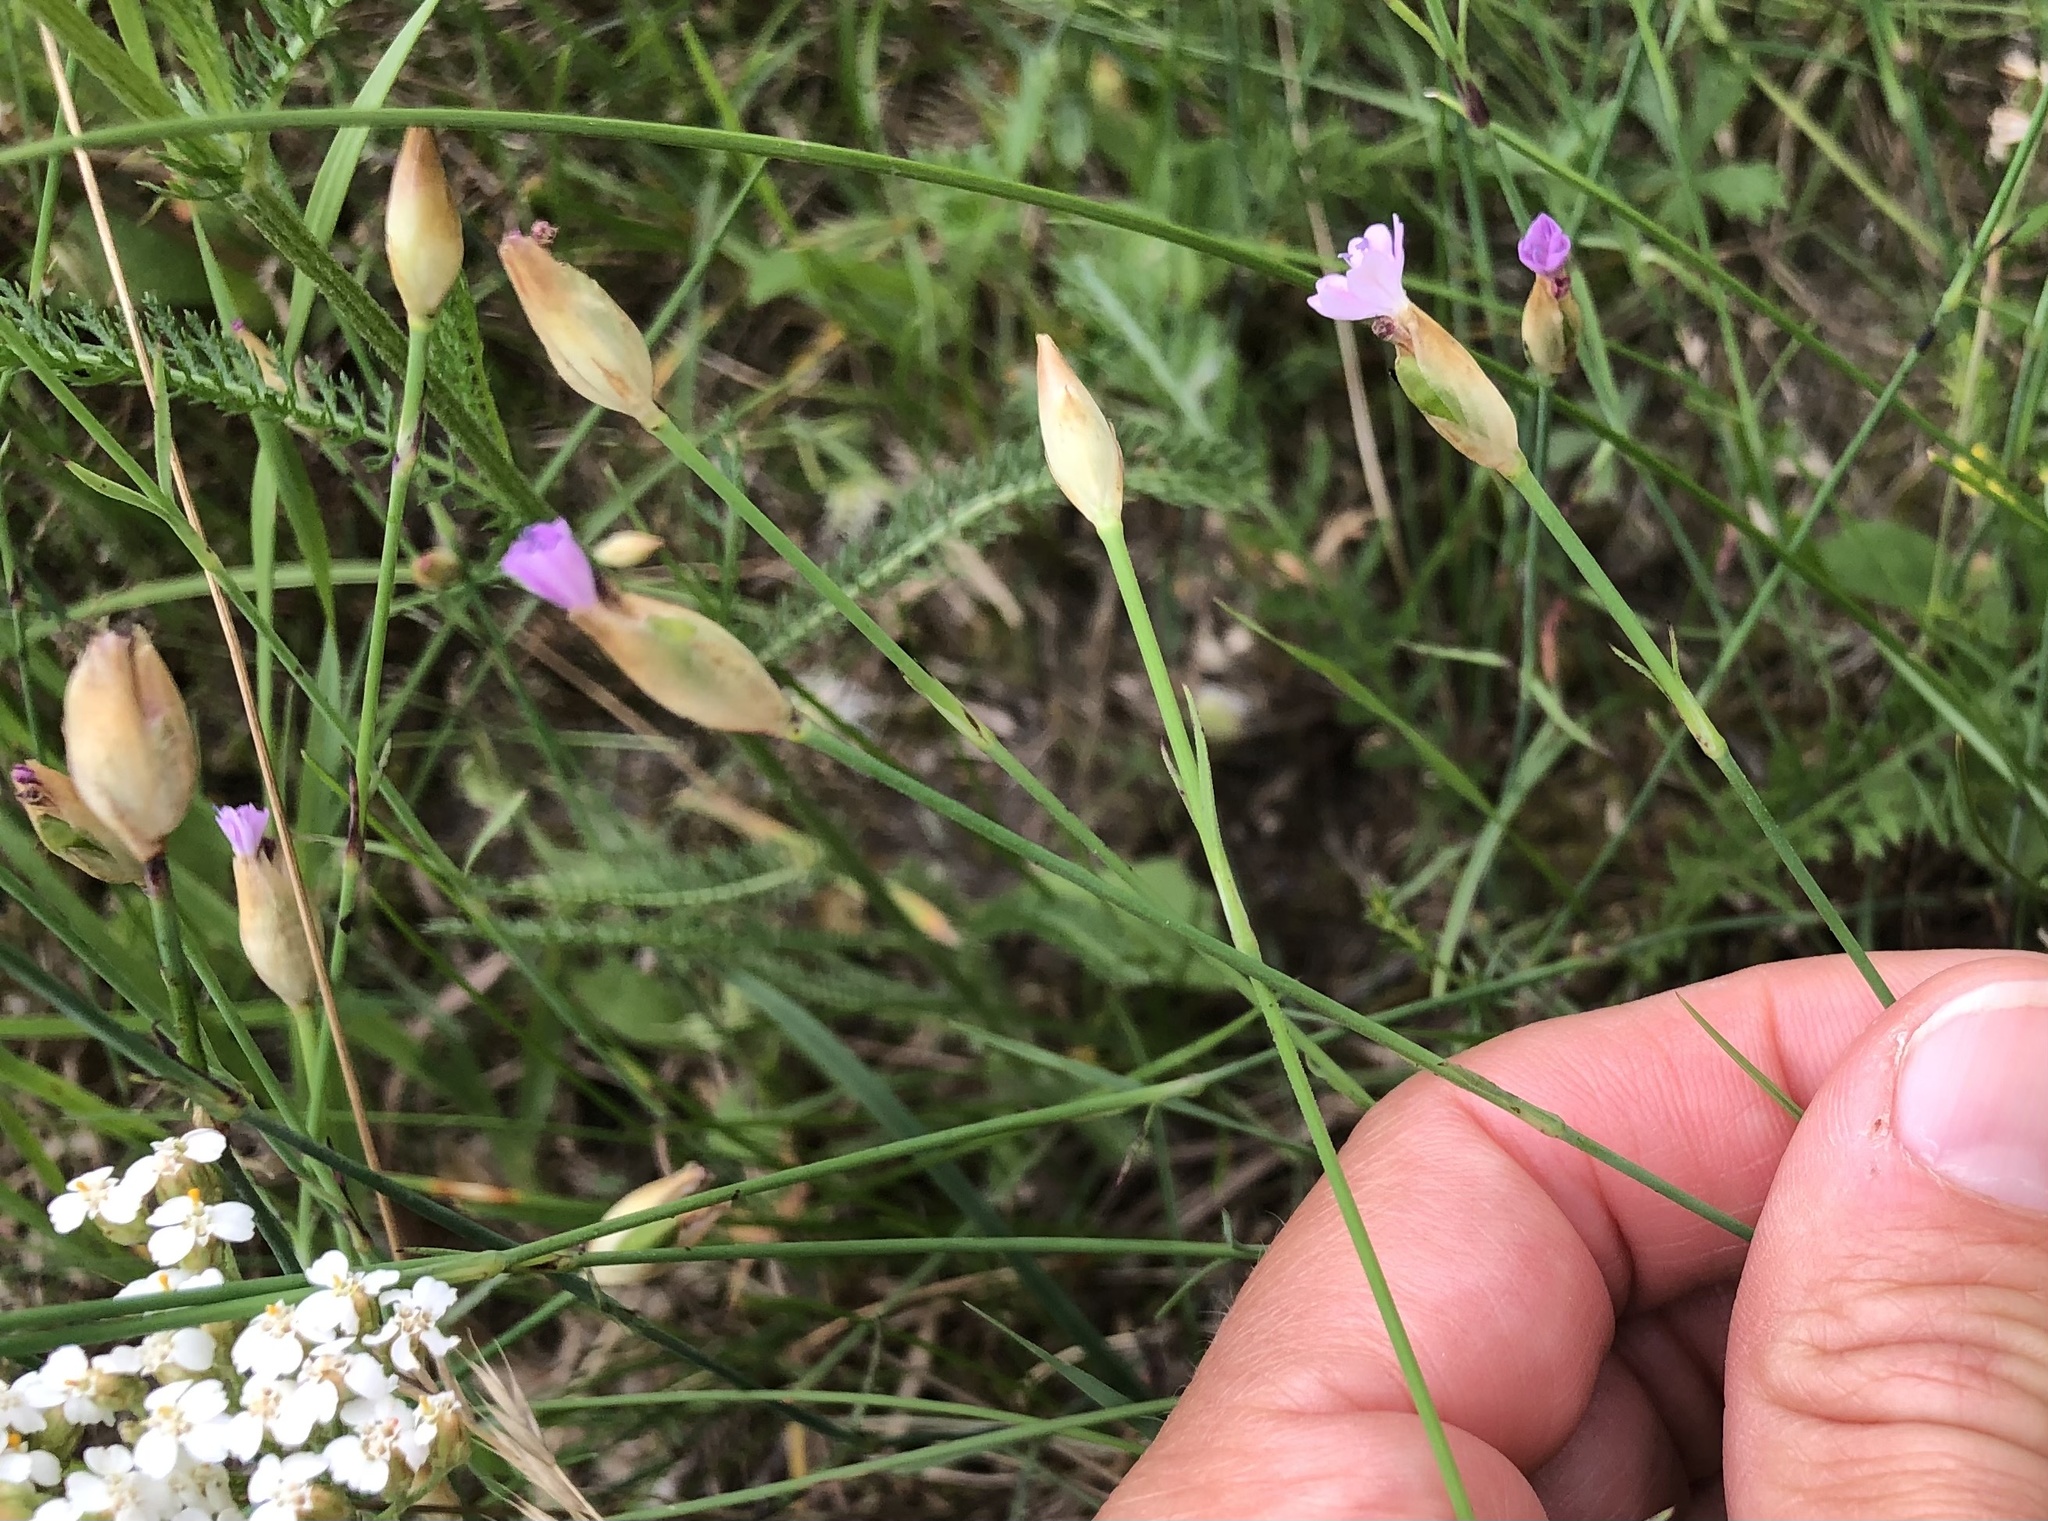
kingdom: Plantae
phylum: Tracheophyta
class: Magnoliopsida
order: Caryophyllales
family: Caryophyllaceae
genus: Petrorhagia
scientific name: Petrorhagia prolifera
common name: Proliferous pink
